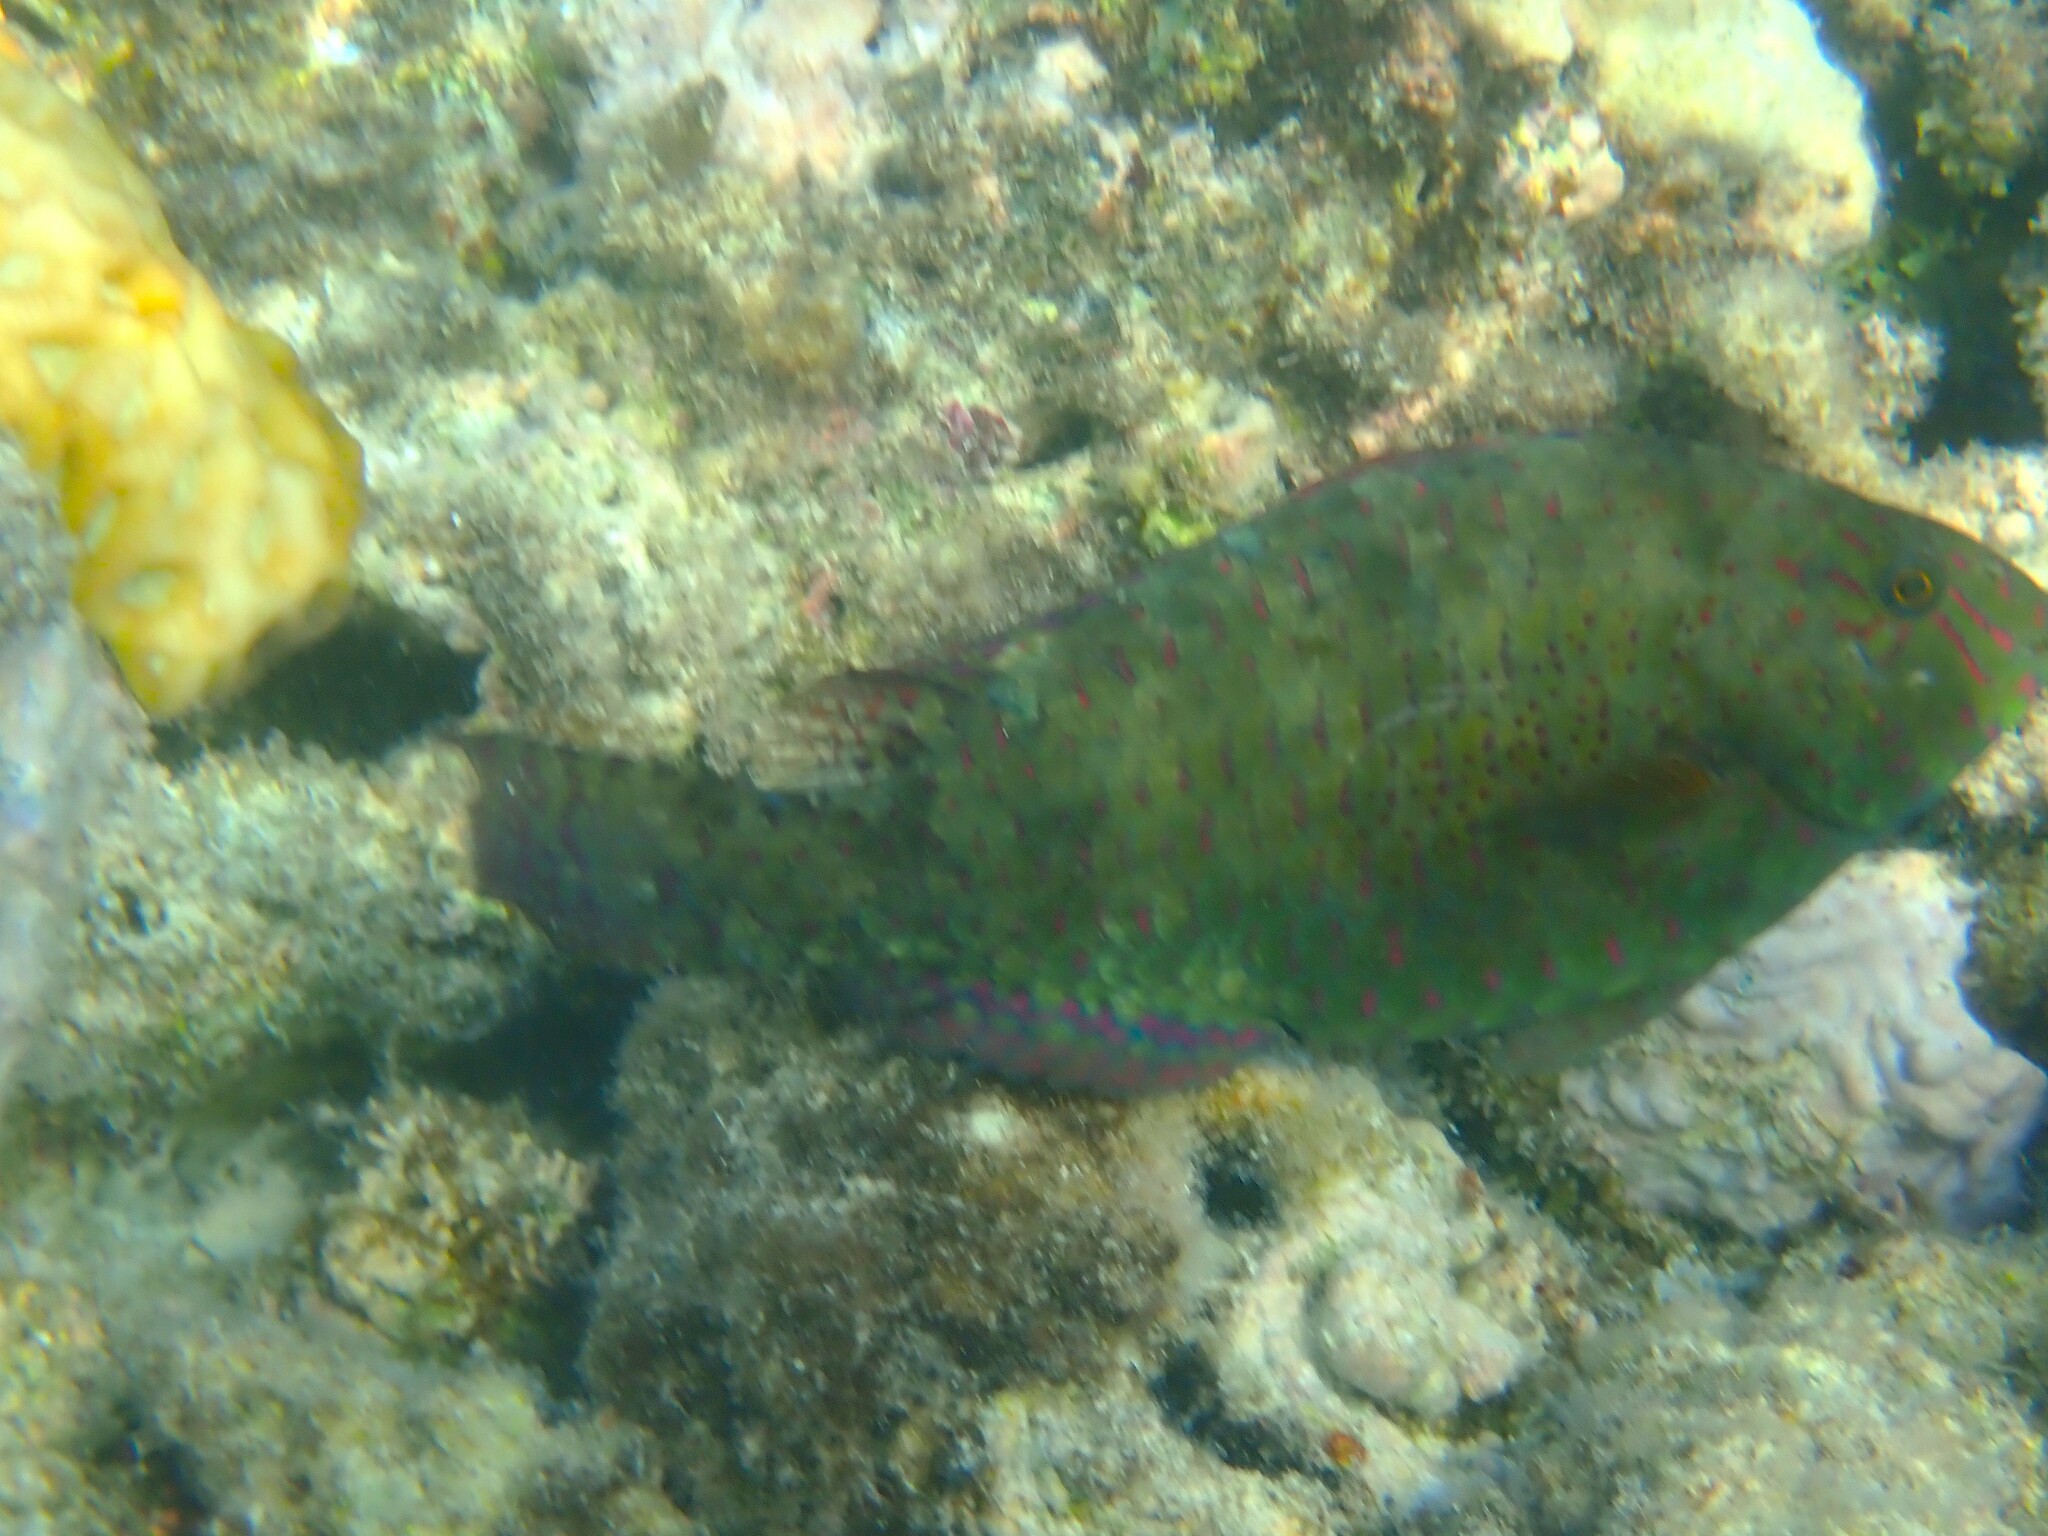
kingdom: Animalia
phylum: Chordata
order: Perciformes
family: Scaridae
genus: Calotomus
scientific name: Calotomus viridescens
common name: Dotted parrotfish
